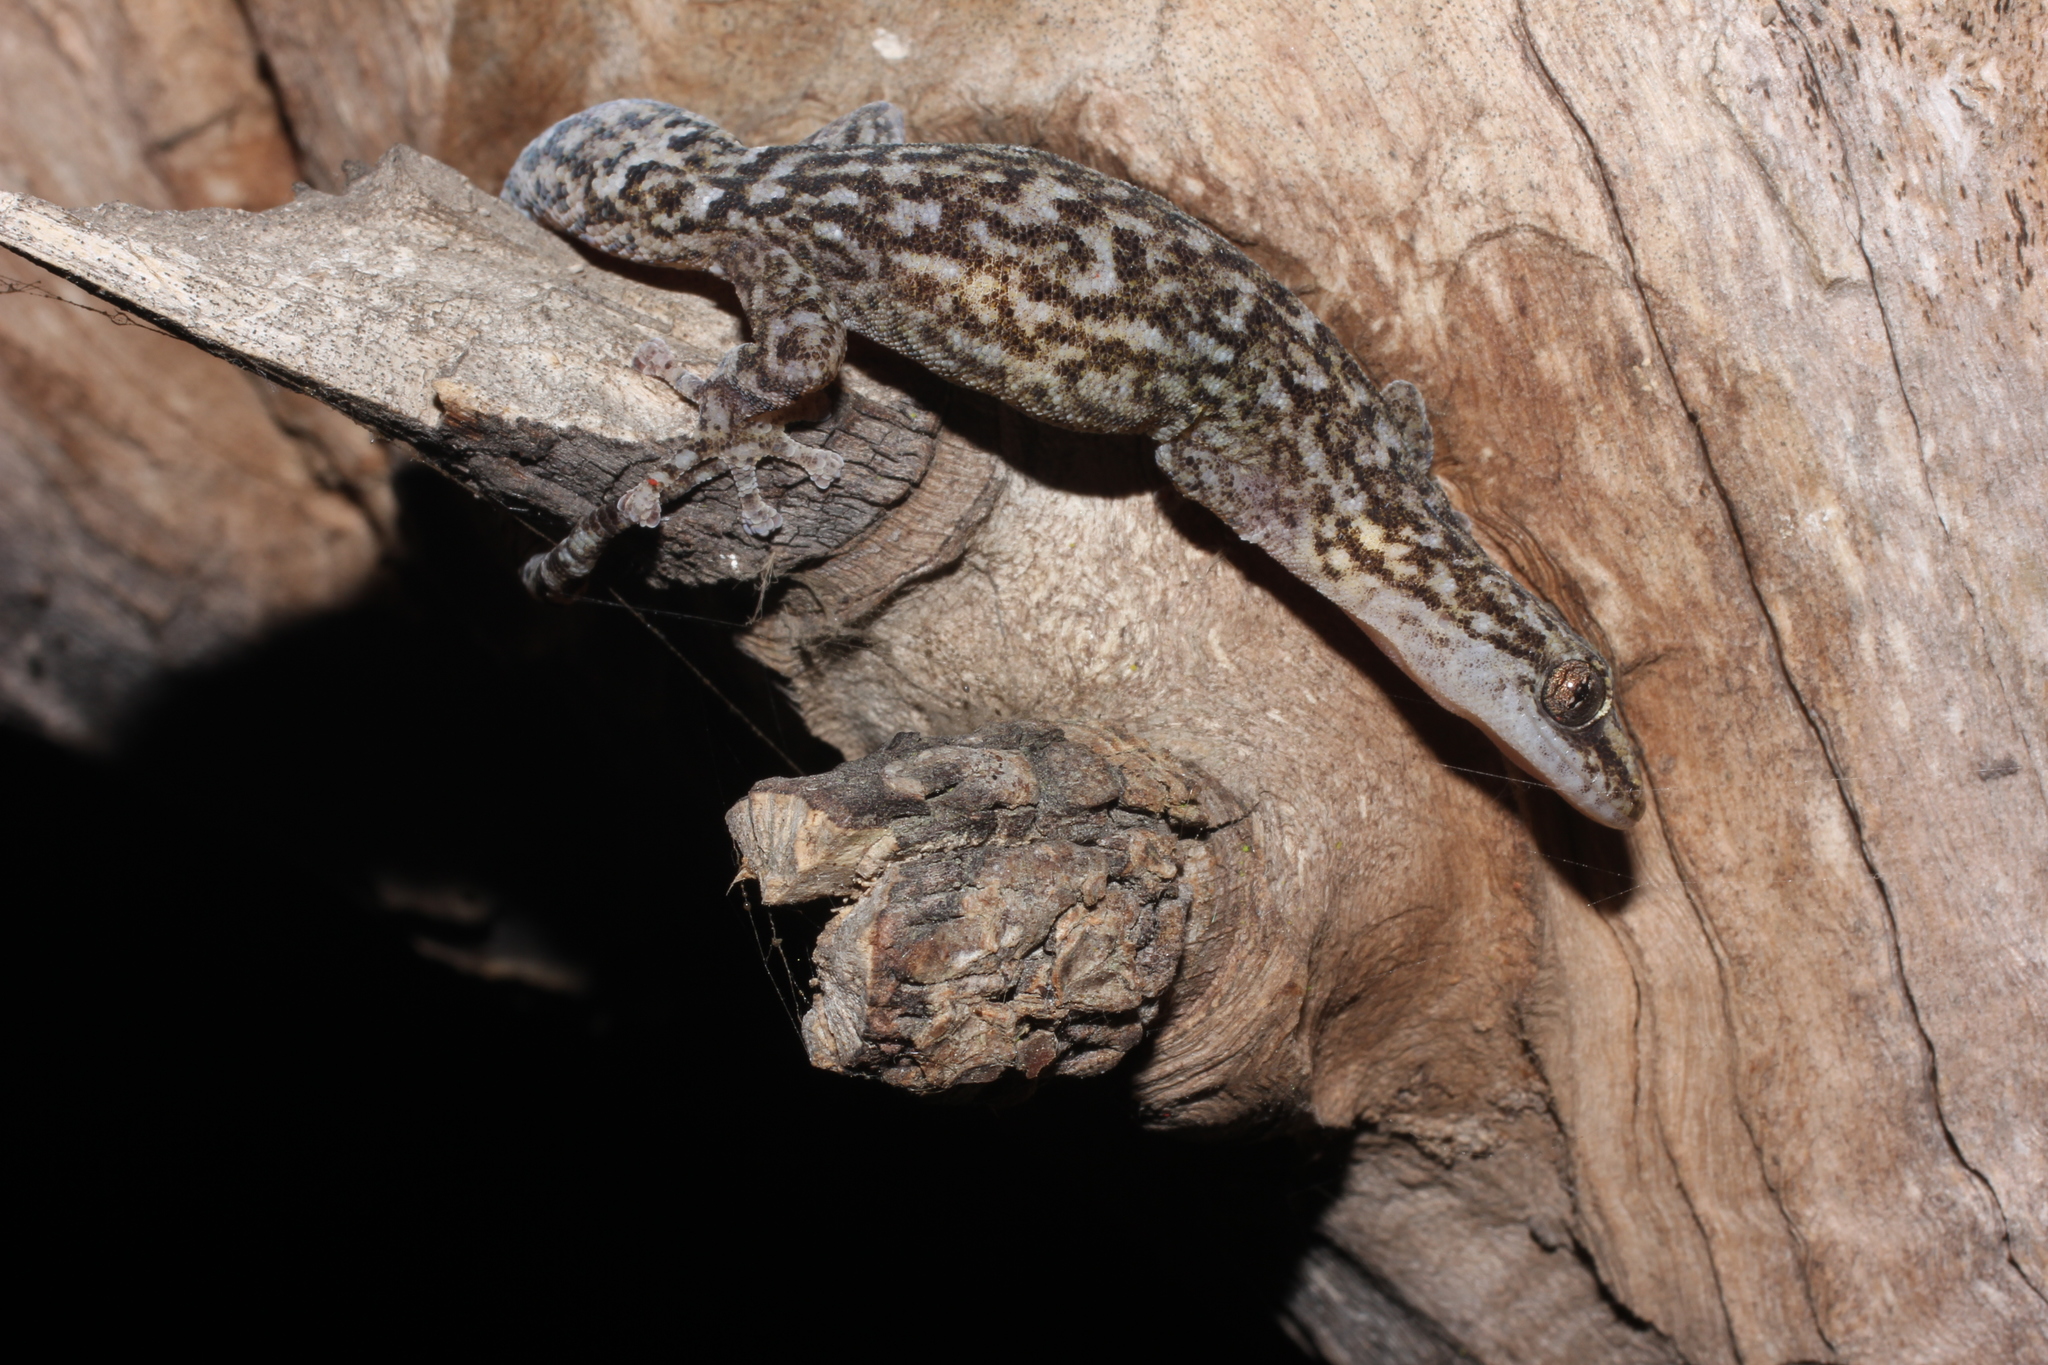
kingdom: Animalia
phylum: Chordata
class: Squamata
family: Gekkonidae
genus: Afrogecko
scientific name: Afrogecko porphyreus
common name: Marbled leaf-toed gecko
